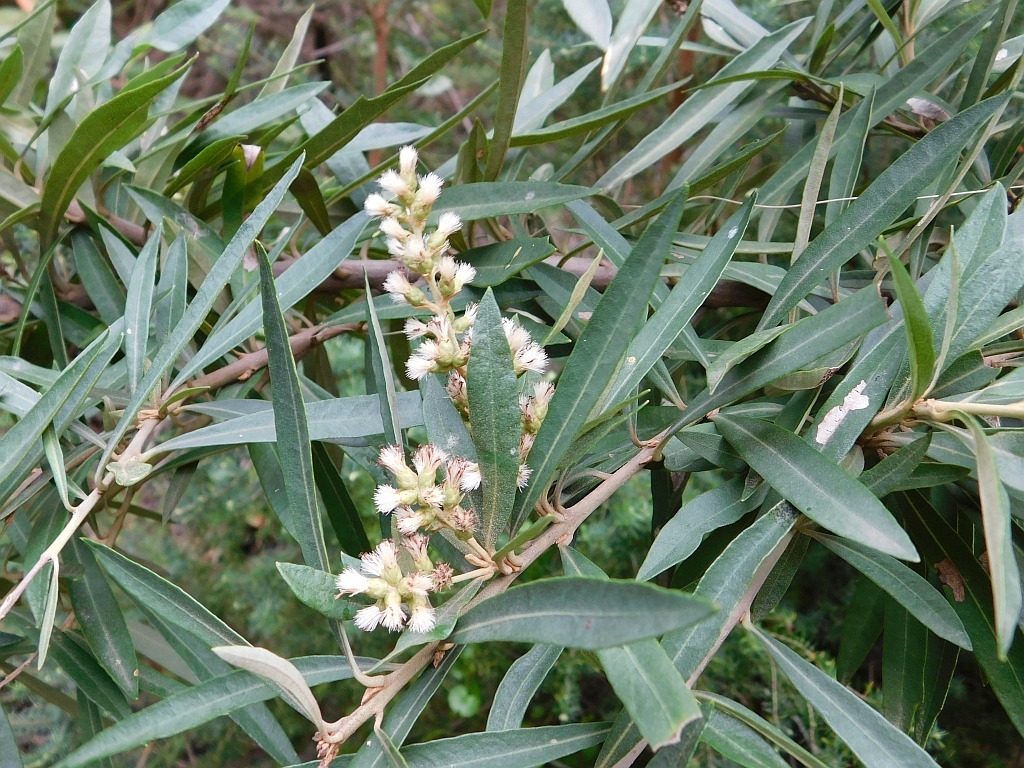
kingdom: Plantae
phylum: Tracheophyta
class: Magnoliopsida
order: Asterales
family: Asteraceae
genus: Brachylaena
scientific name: Brachylaena neriifolia
